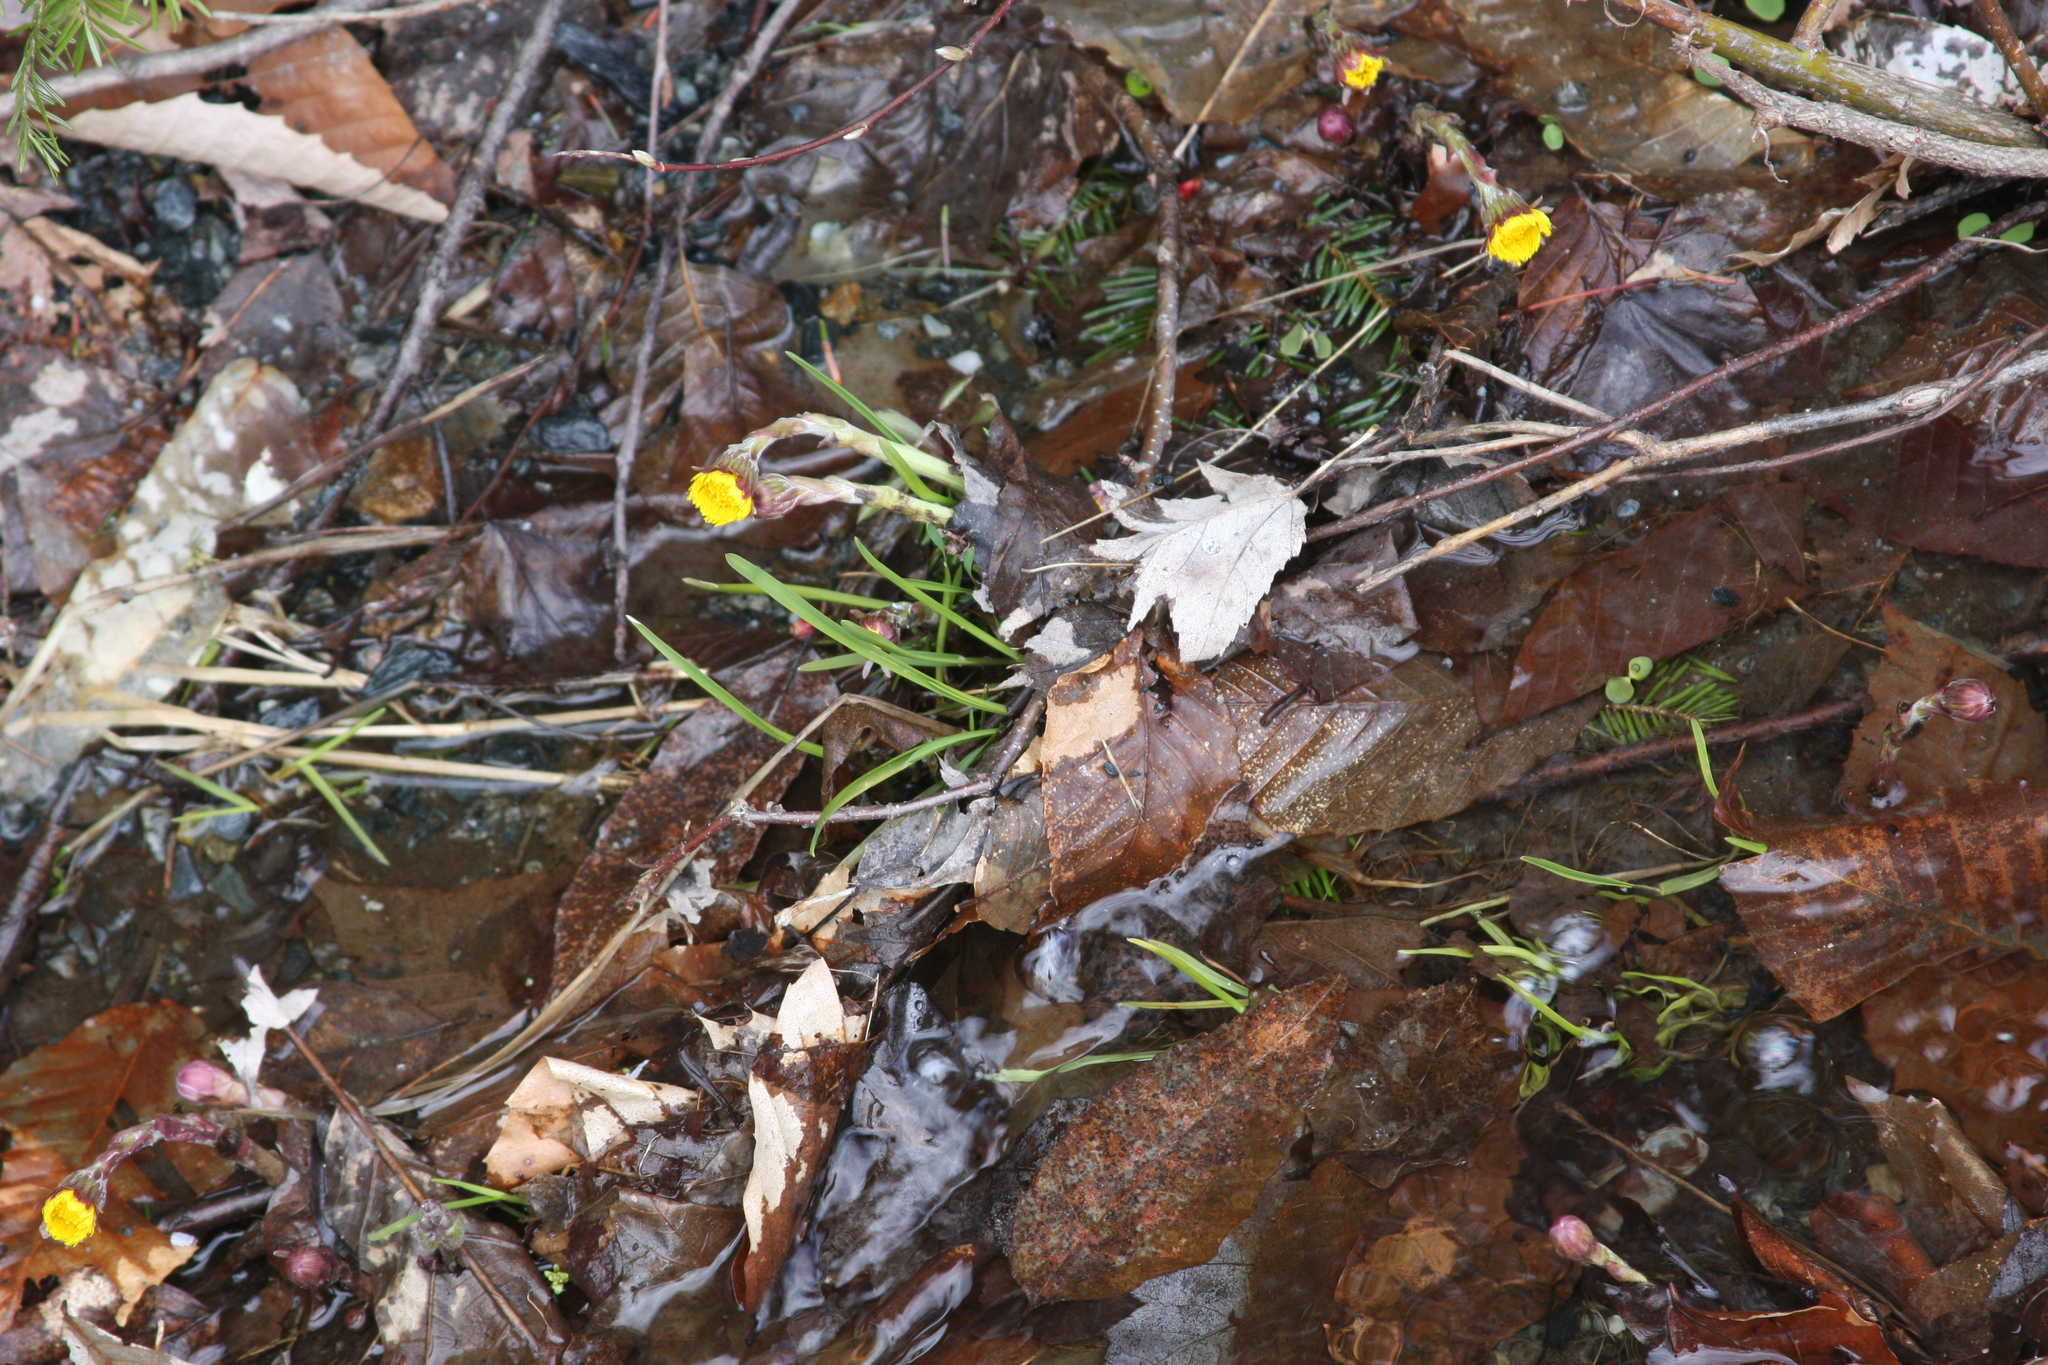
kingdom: Plantae
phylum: Tracheophyta
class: Magnoliopsida
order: Asterales
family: Asteraceae
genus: Tussilago
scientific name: Tussilago farfara
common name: Coltsfoot
